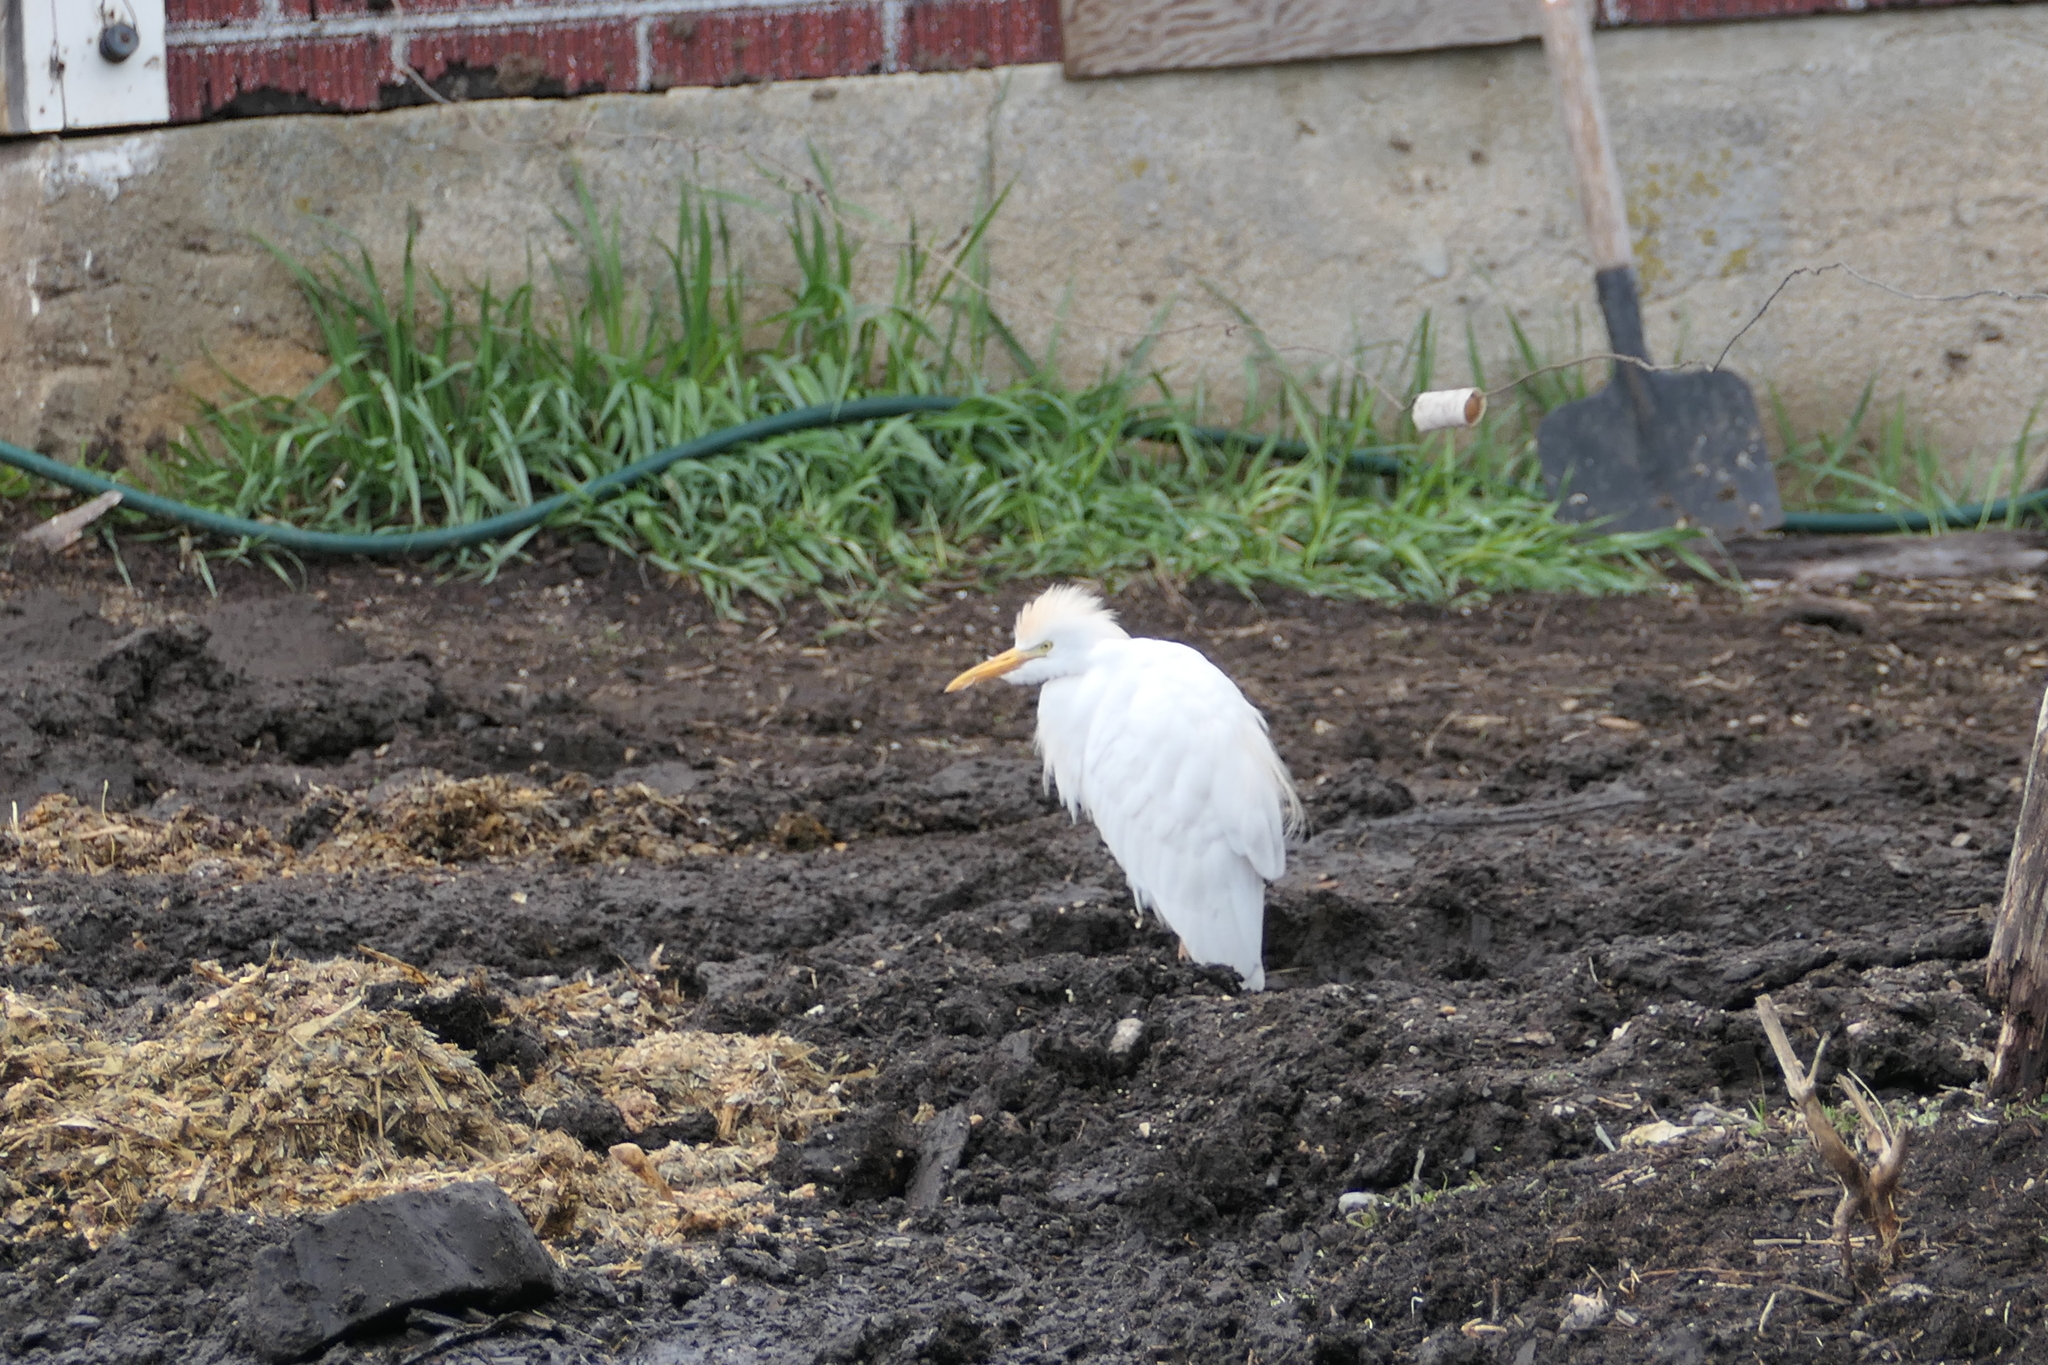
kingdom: Animalia
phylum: Chordata
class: Aves
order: Pelecaniformes
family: Ardeidae
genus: Bubulcus
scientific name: Bubulcus ibis
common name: Cattle egret
